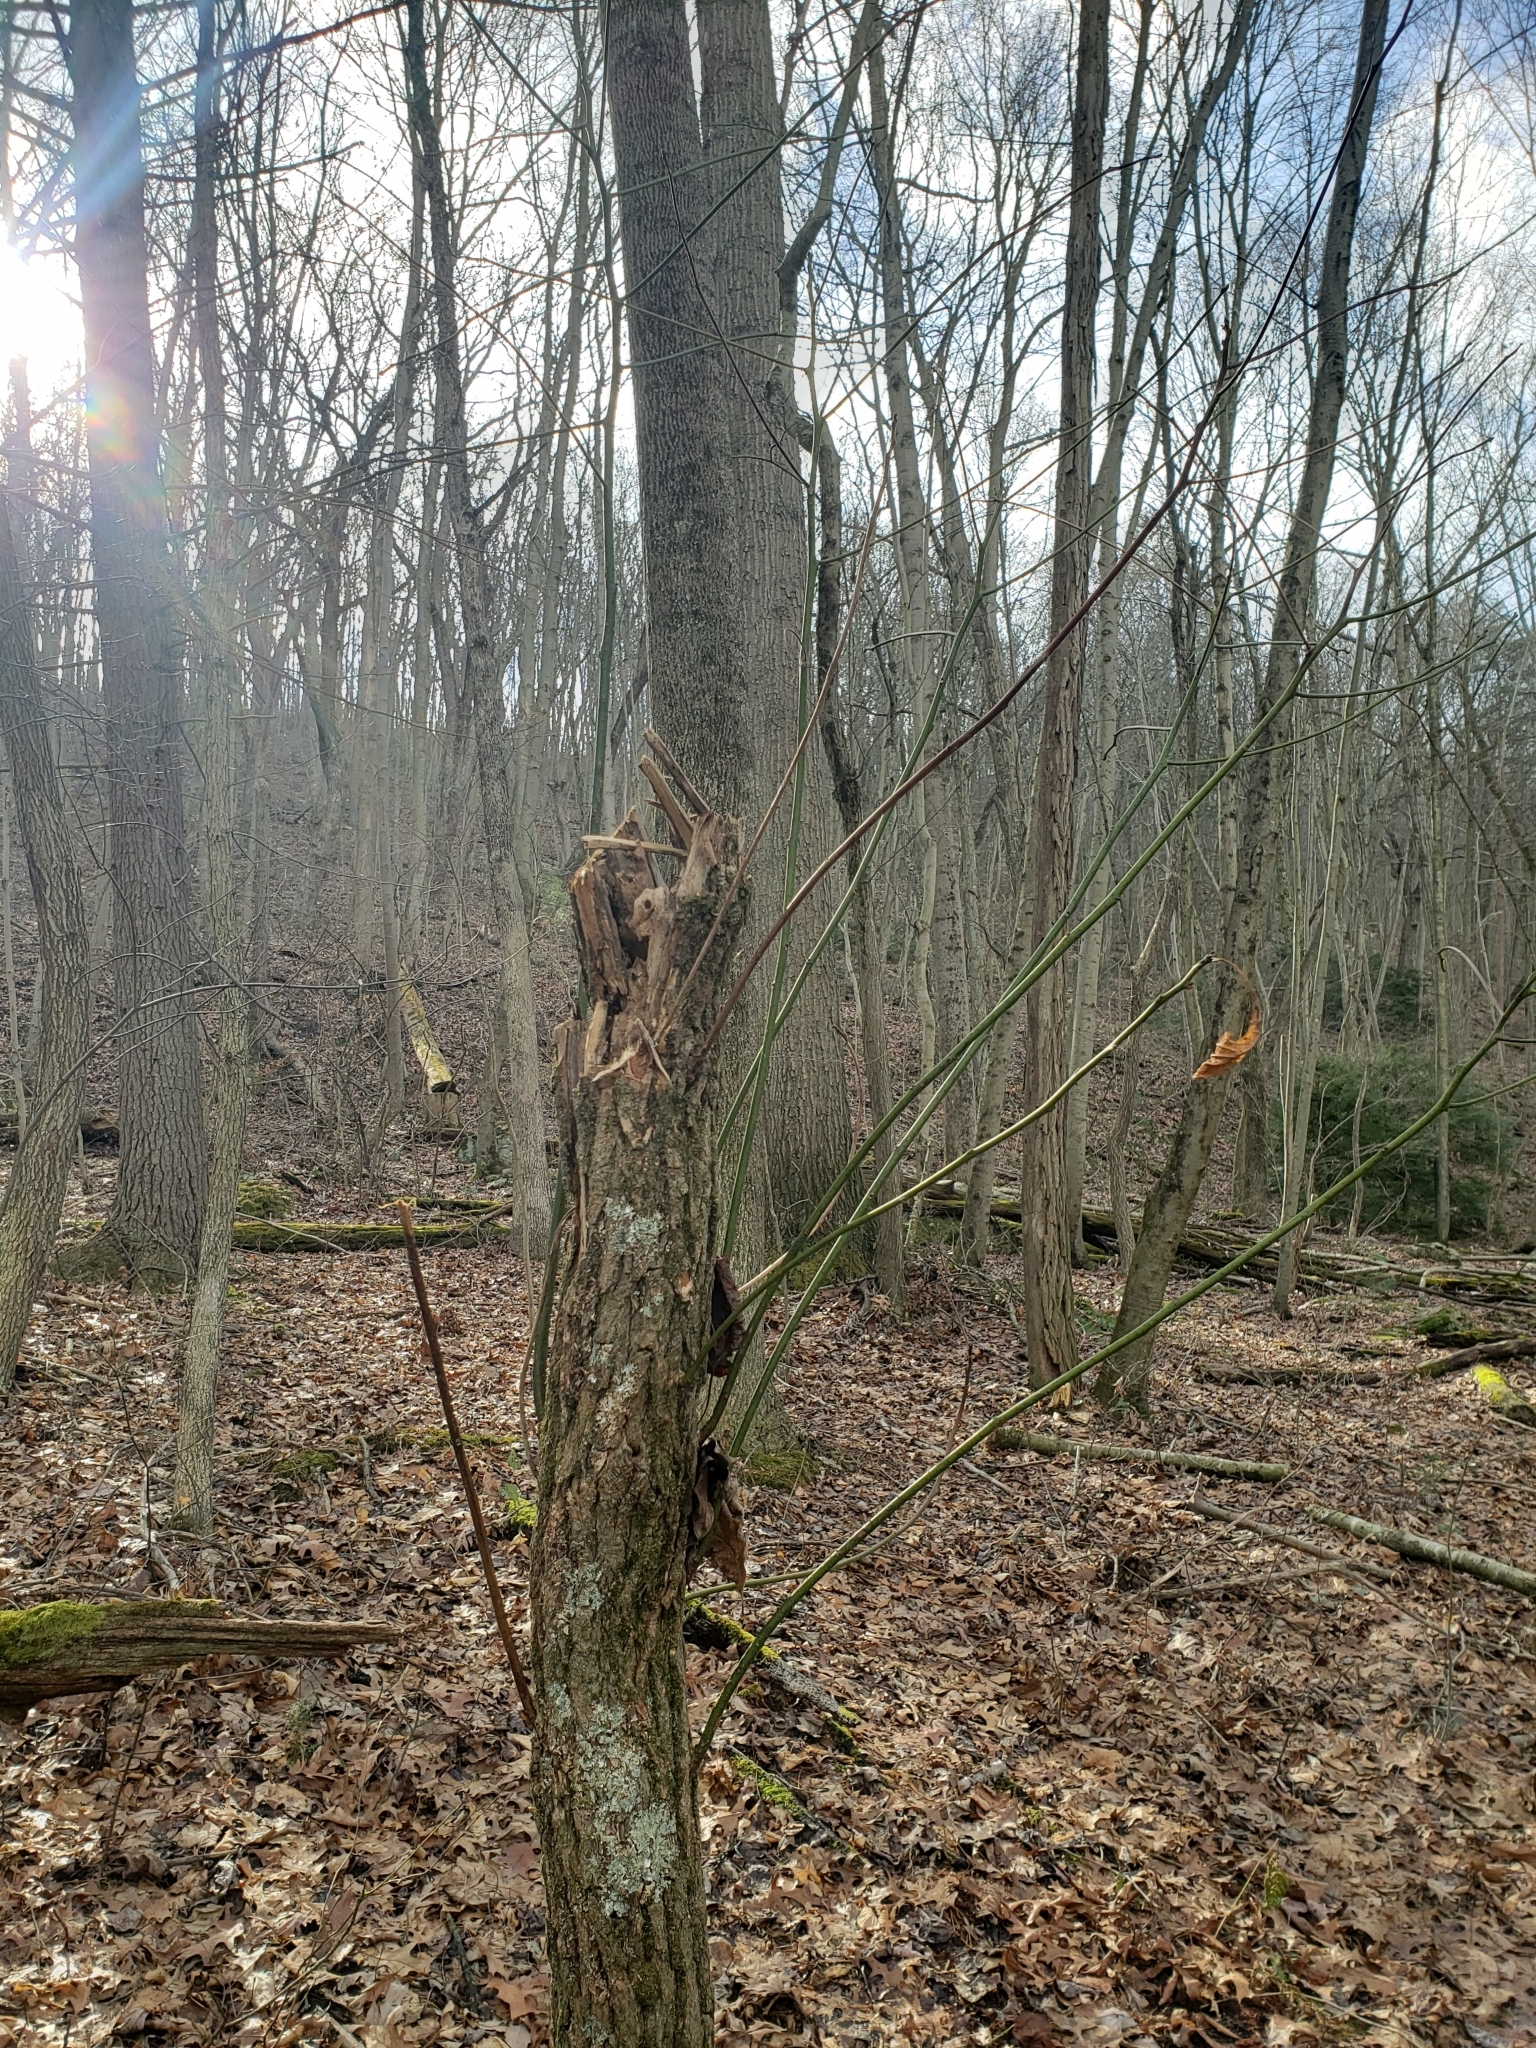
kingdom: Plantae
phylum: Tracheophyta
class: Magnoliopsida
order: Laurales
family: Lauraceae
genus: Sassafras
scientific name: Sassafras albidum
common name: Sassafras
